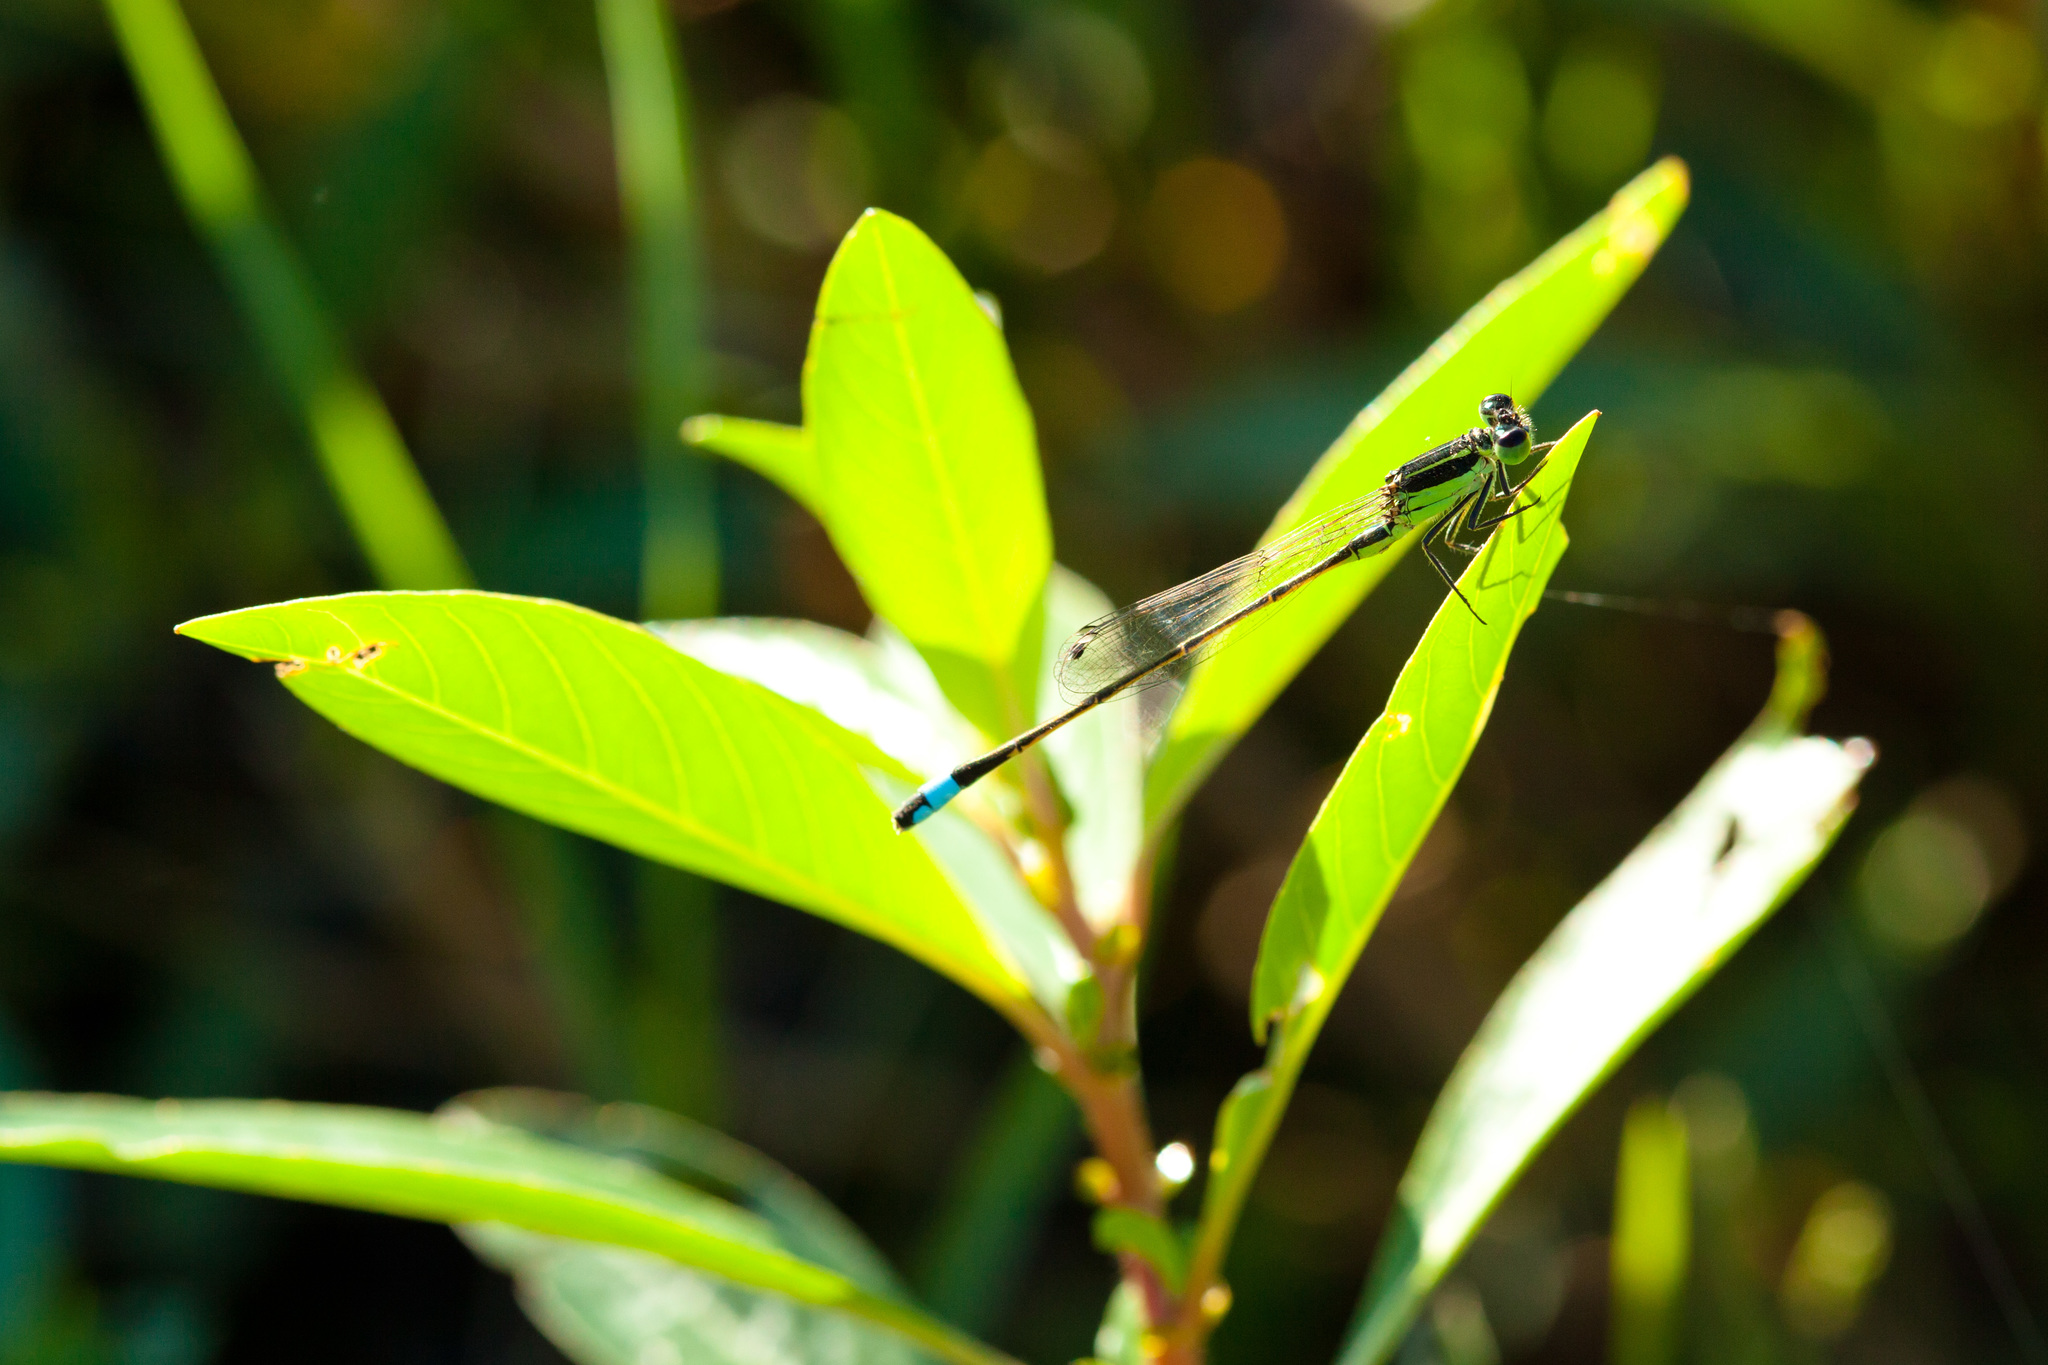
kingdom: Animalia
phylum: Arthropoda
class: Insecta
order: Odonata
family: Coenagrionidae
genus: Ischnura
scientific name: Ischnura ramburii
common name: Rambur's forktail
